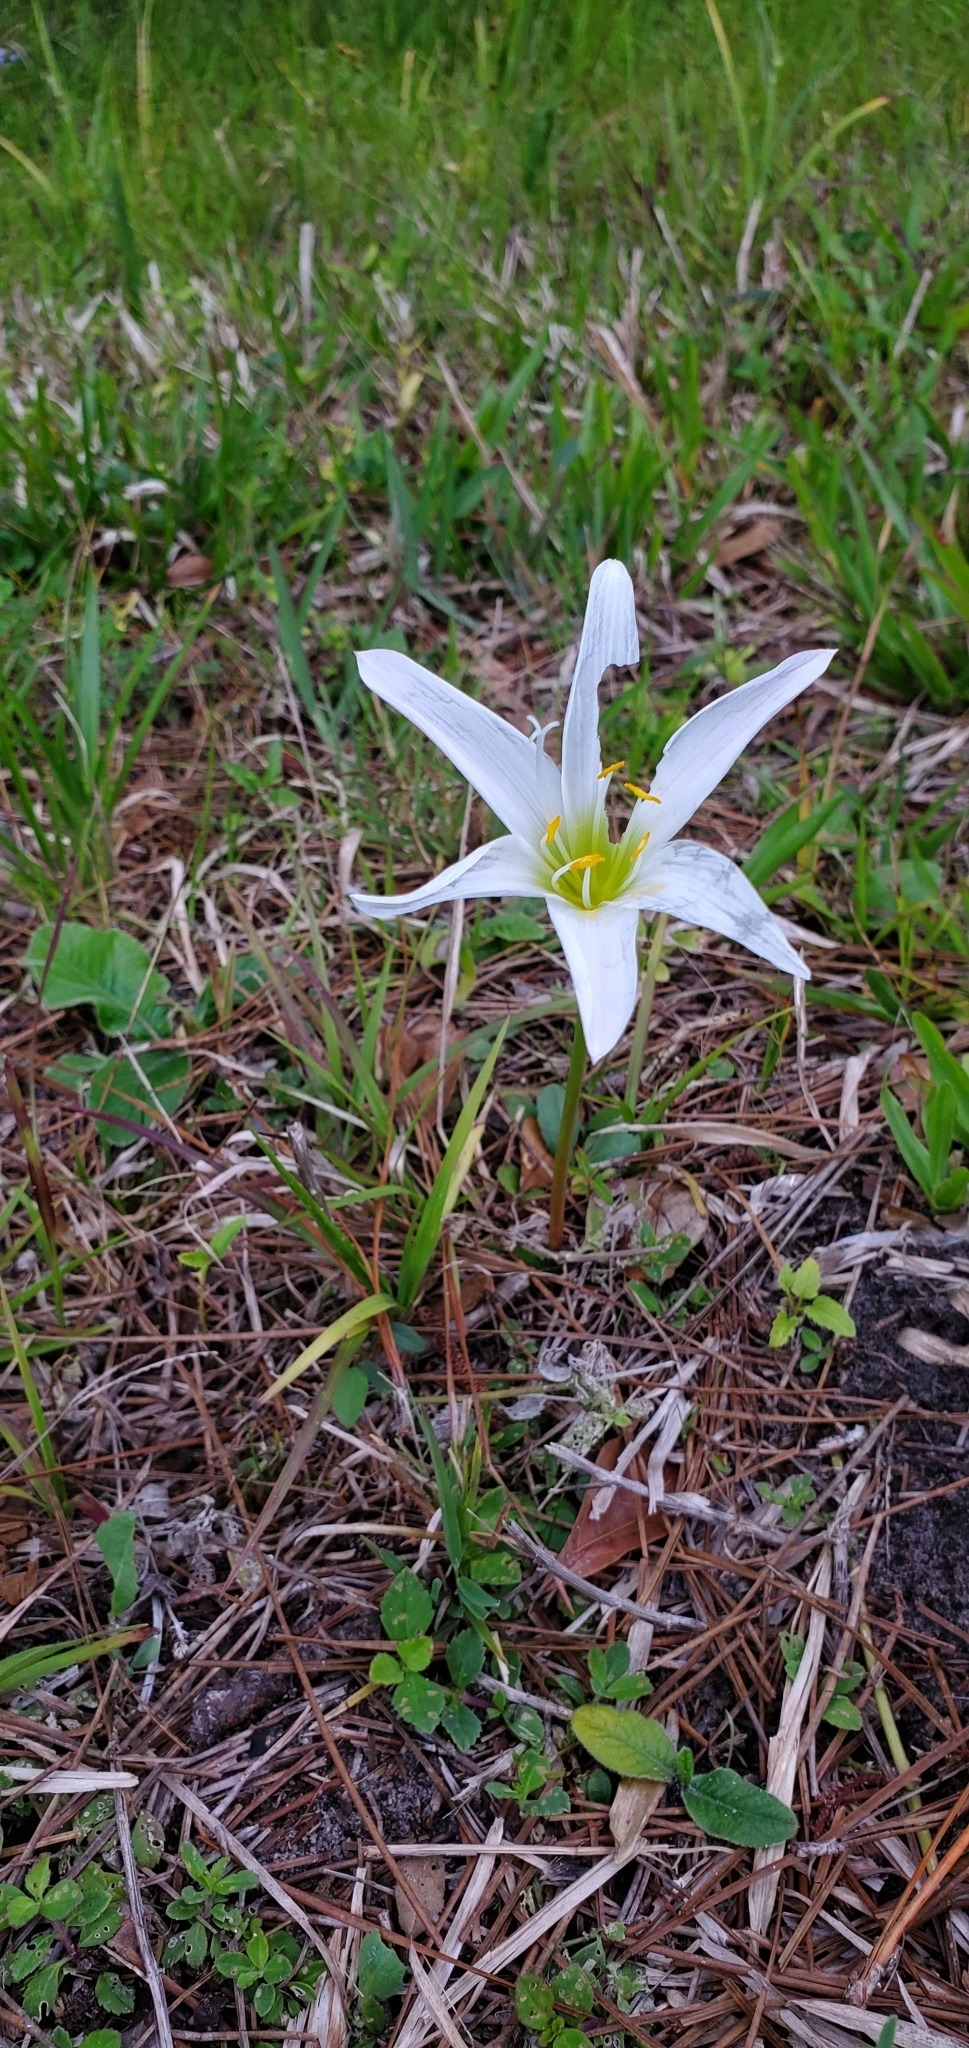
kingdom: Plantae
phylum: Tracheophyta
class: Liliopsida
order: Asparagales
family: Amaryllidaceae
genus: Zephyranthes
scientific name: Zephyranthes atamasco
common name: Atamasco lily
